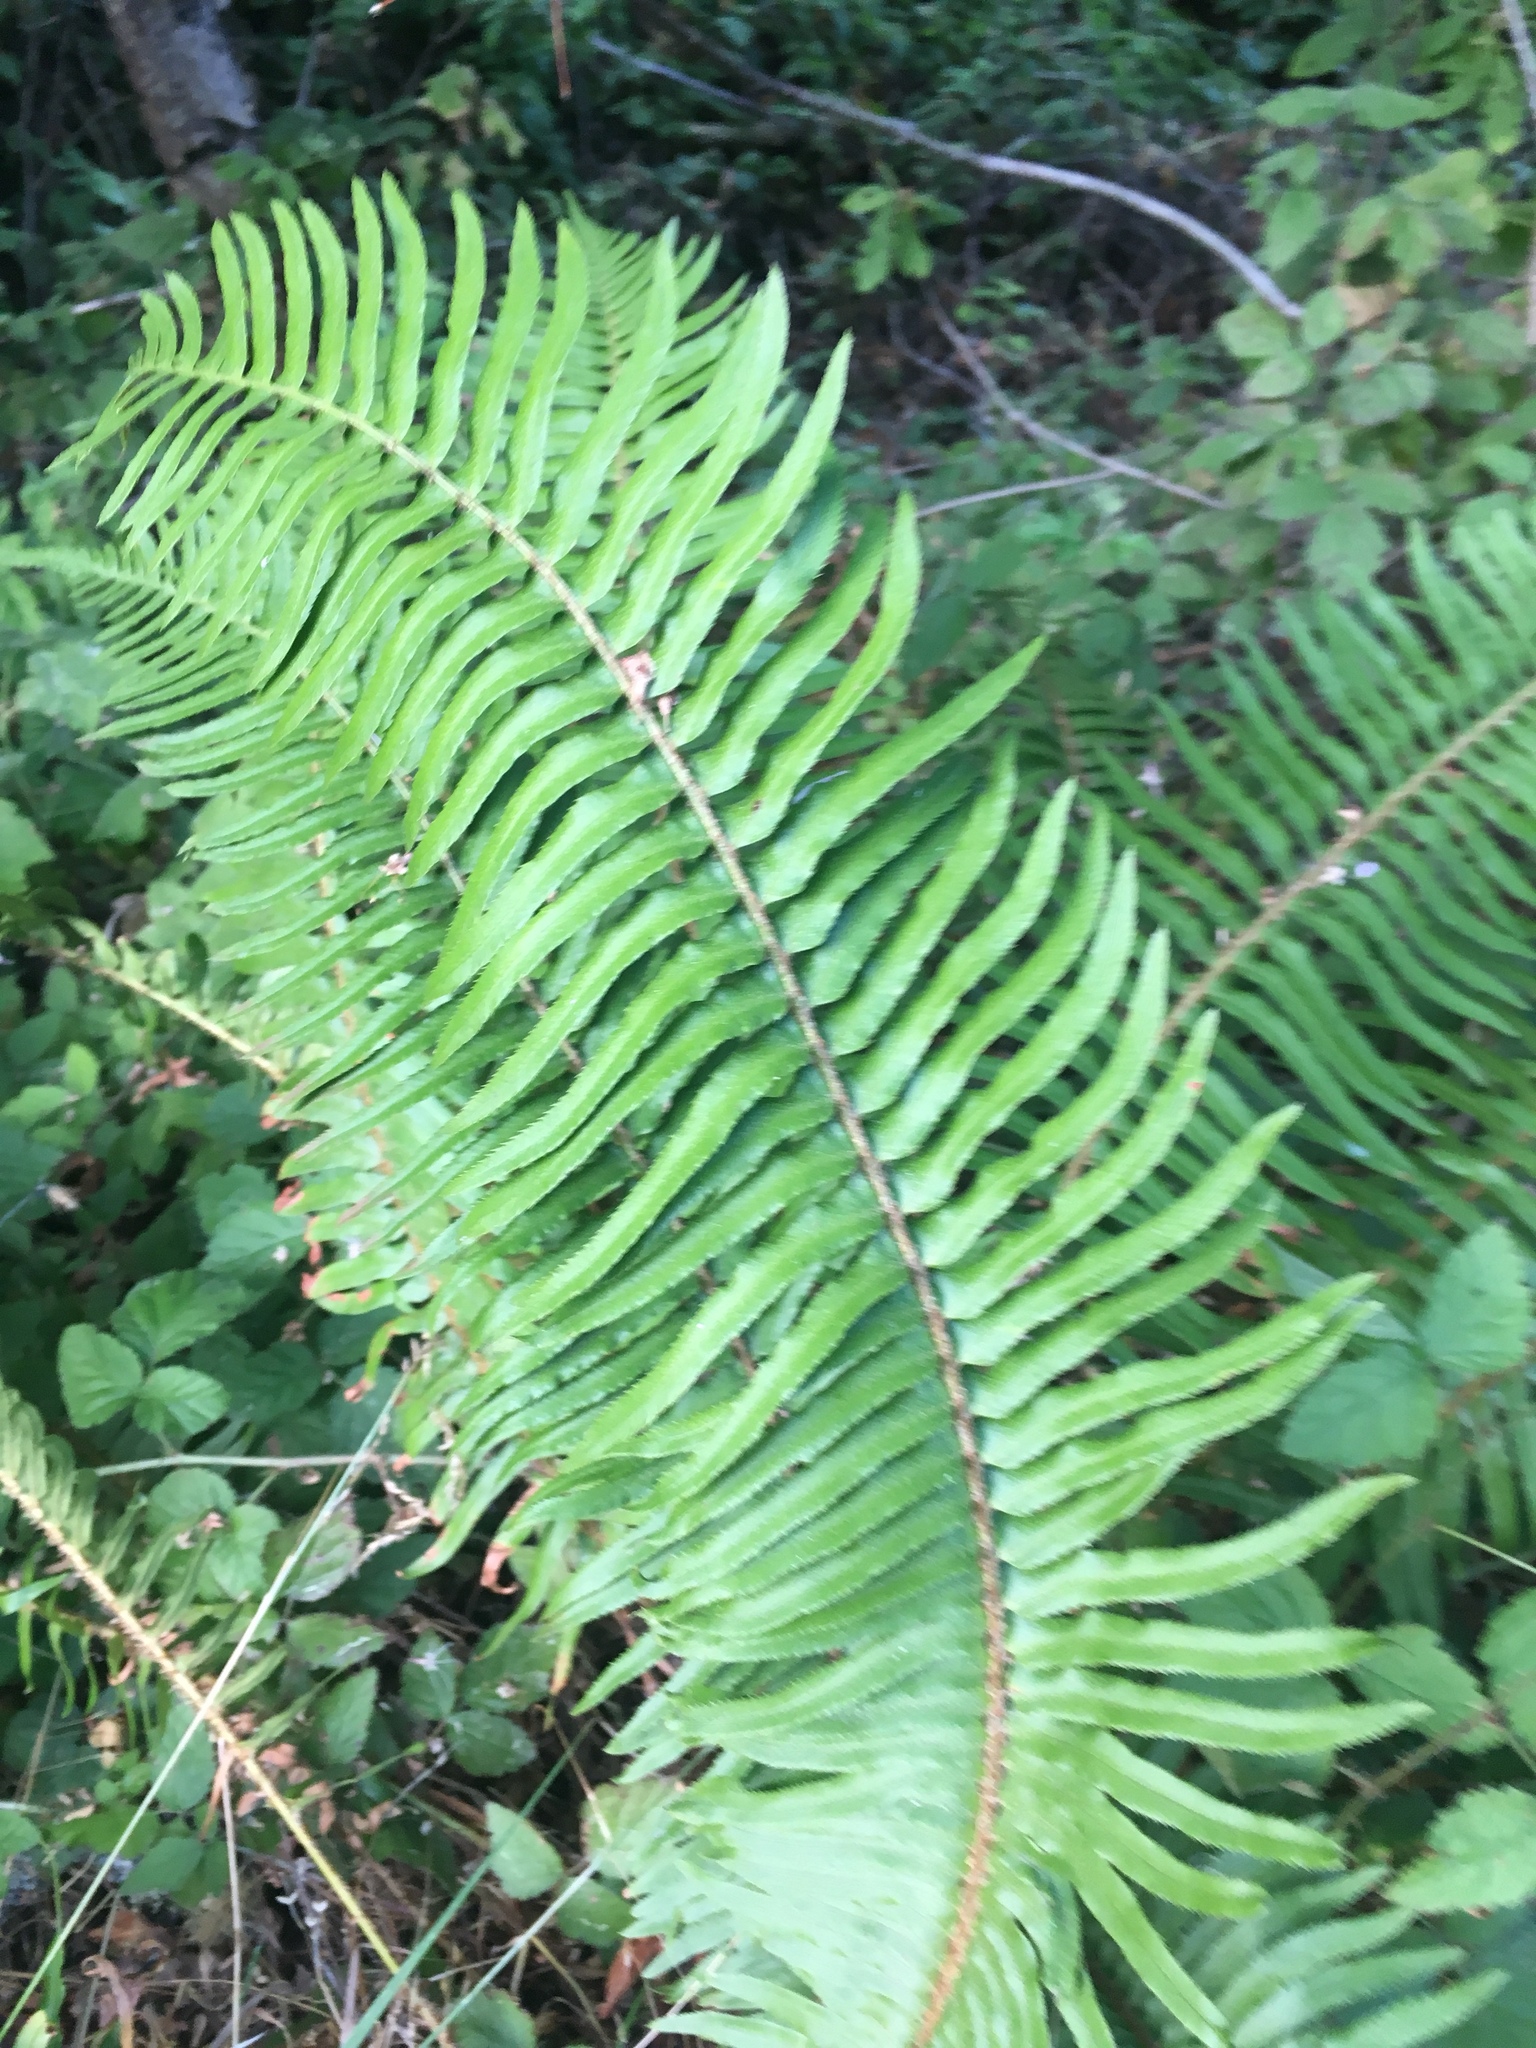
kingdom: Plantae
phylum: Tracheophyta
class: Polypodiopsida
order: Polypodiales
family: Dryopteridaceae
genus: Polystichum
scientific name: Polystichum munitum
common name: Western sword-fern
